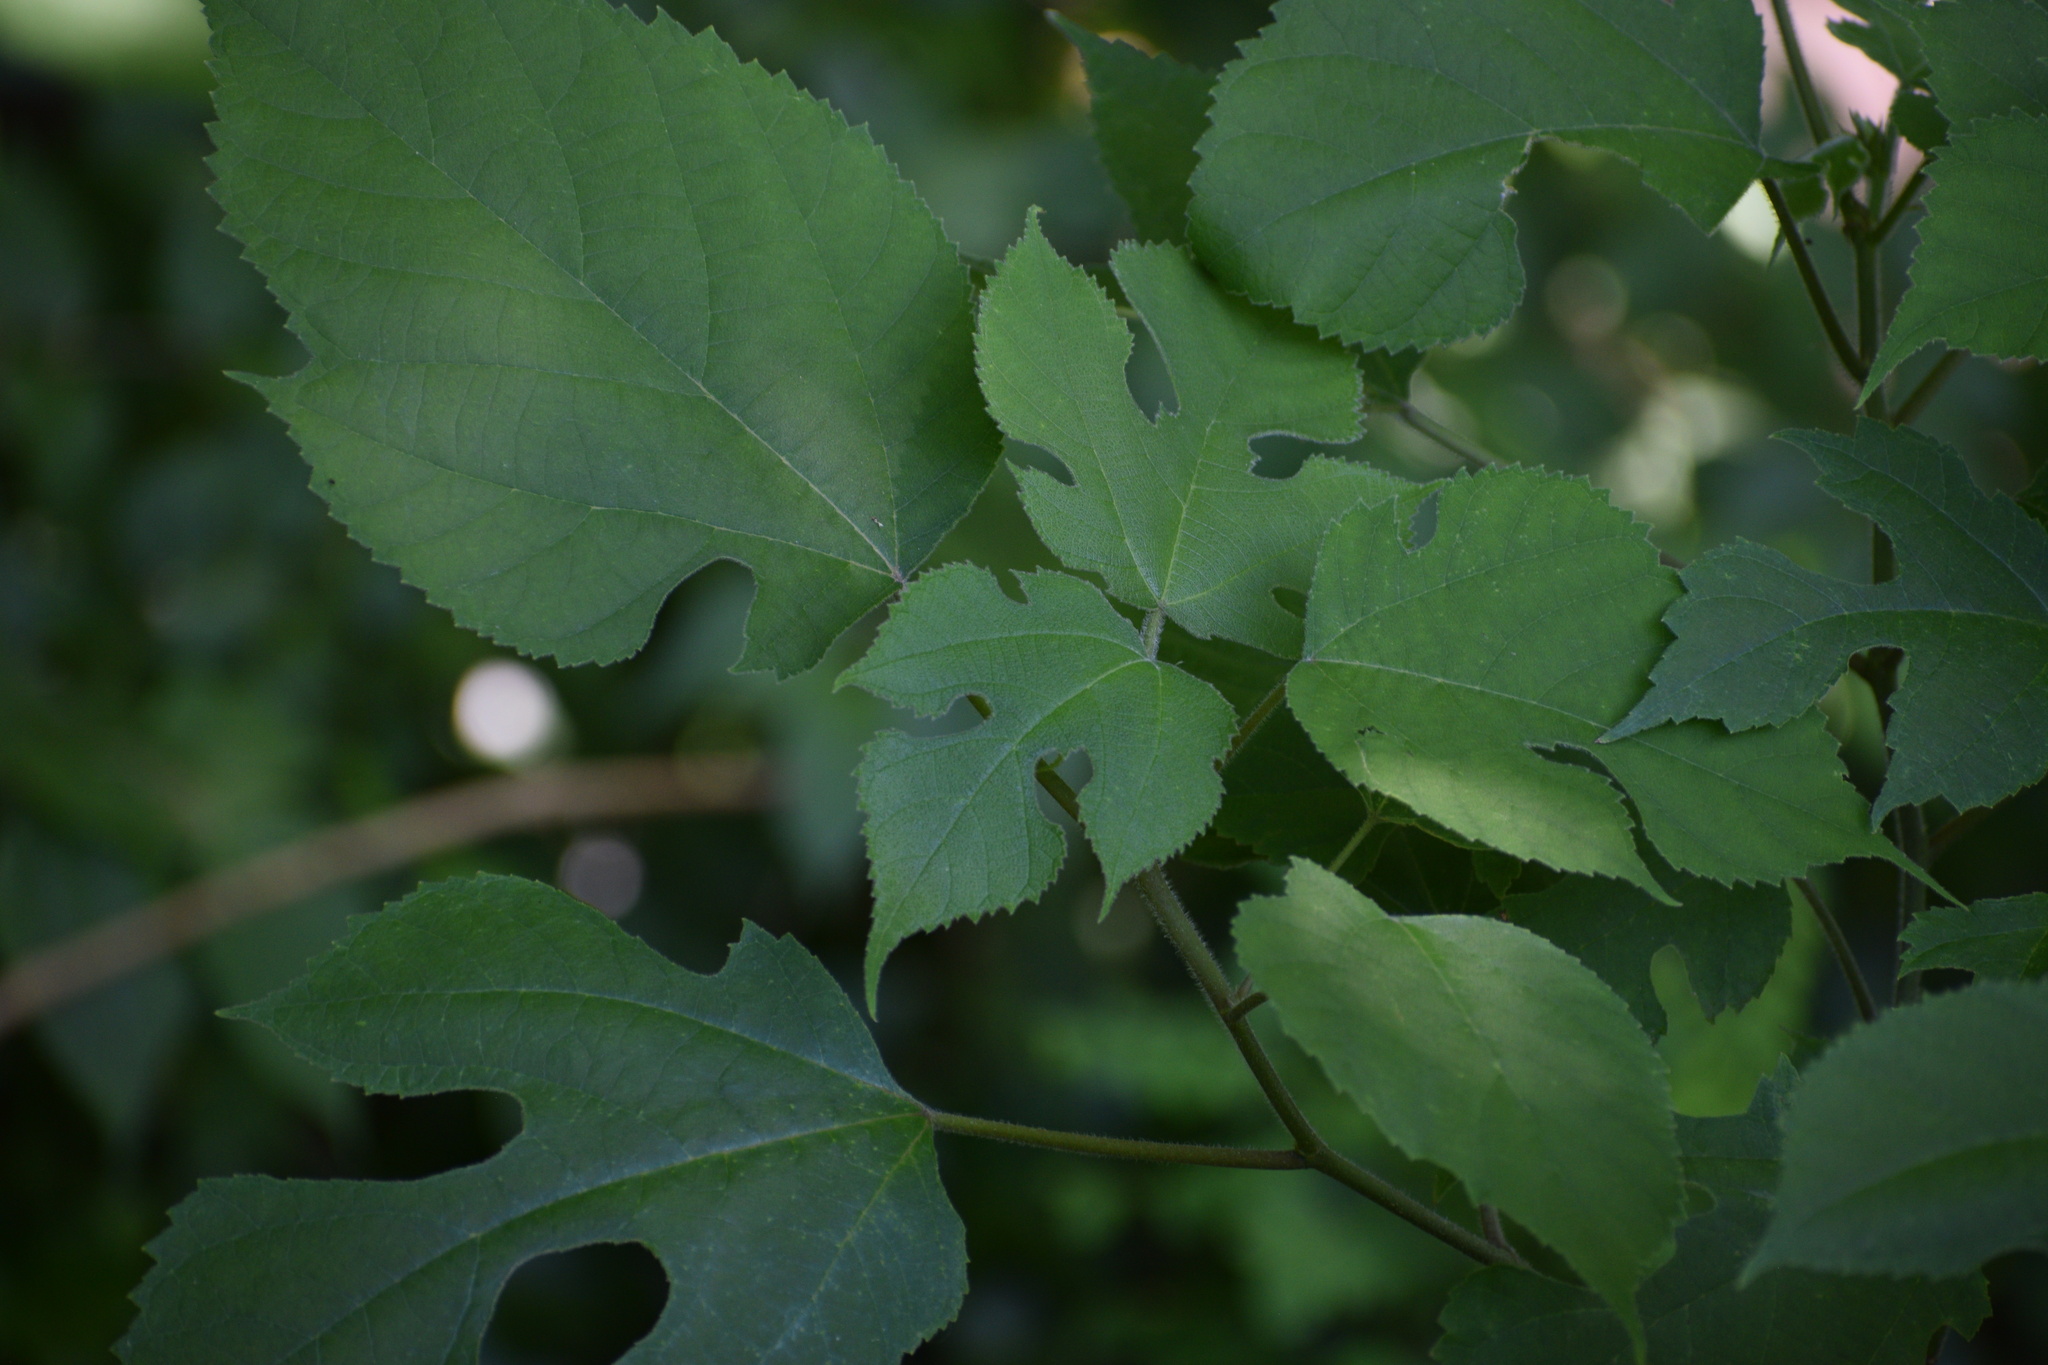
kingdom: Plantae
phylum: Tracheophyta
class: Magnoliopsida
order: Rosales
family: Moraceae
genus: Broussonetia
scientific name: Broussonetia papyrifera
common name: Paper mulberry
